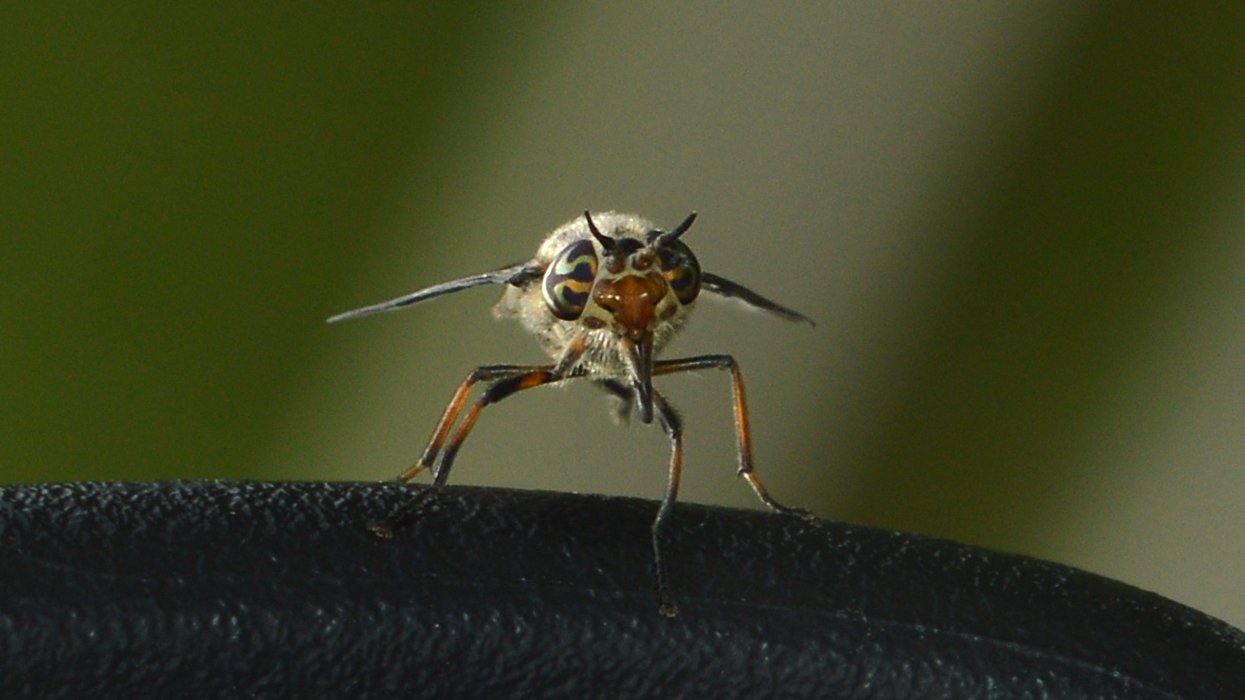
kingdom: Animalia
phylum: Arthropoda
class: Insecta
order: Diptera
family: Tabanidae
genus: Chrysops
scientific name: Chrysops vittatus
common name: Striped deer fly
